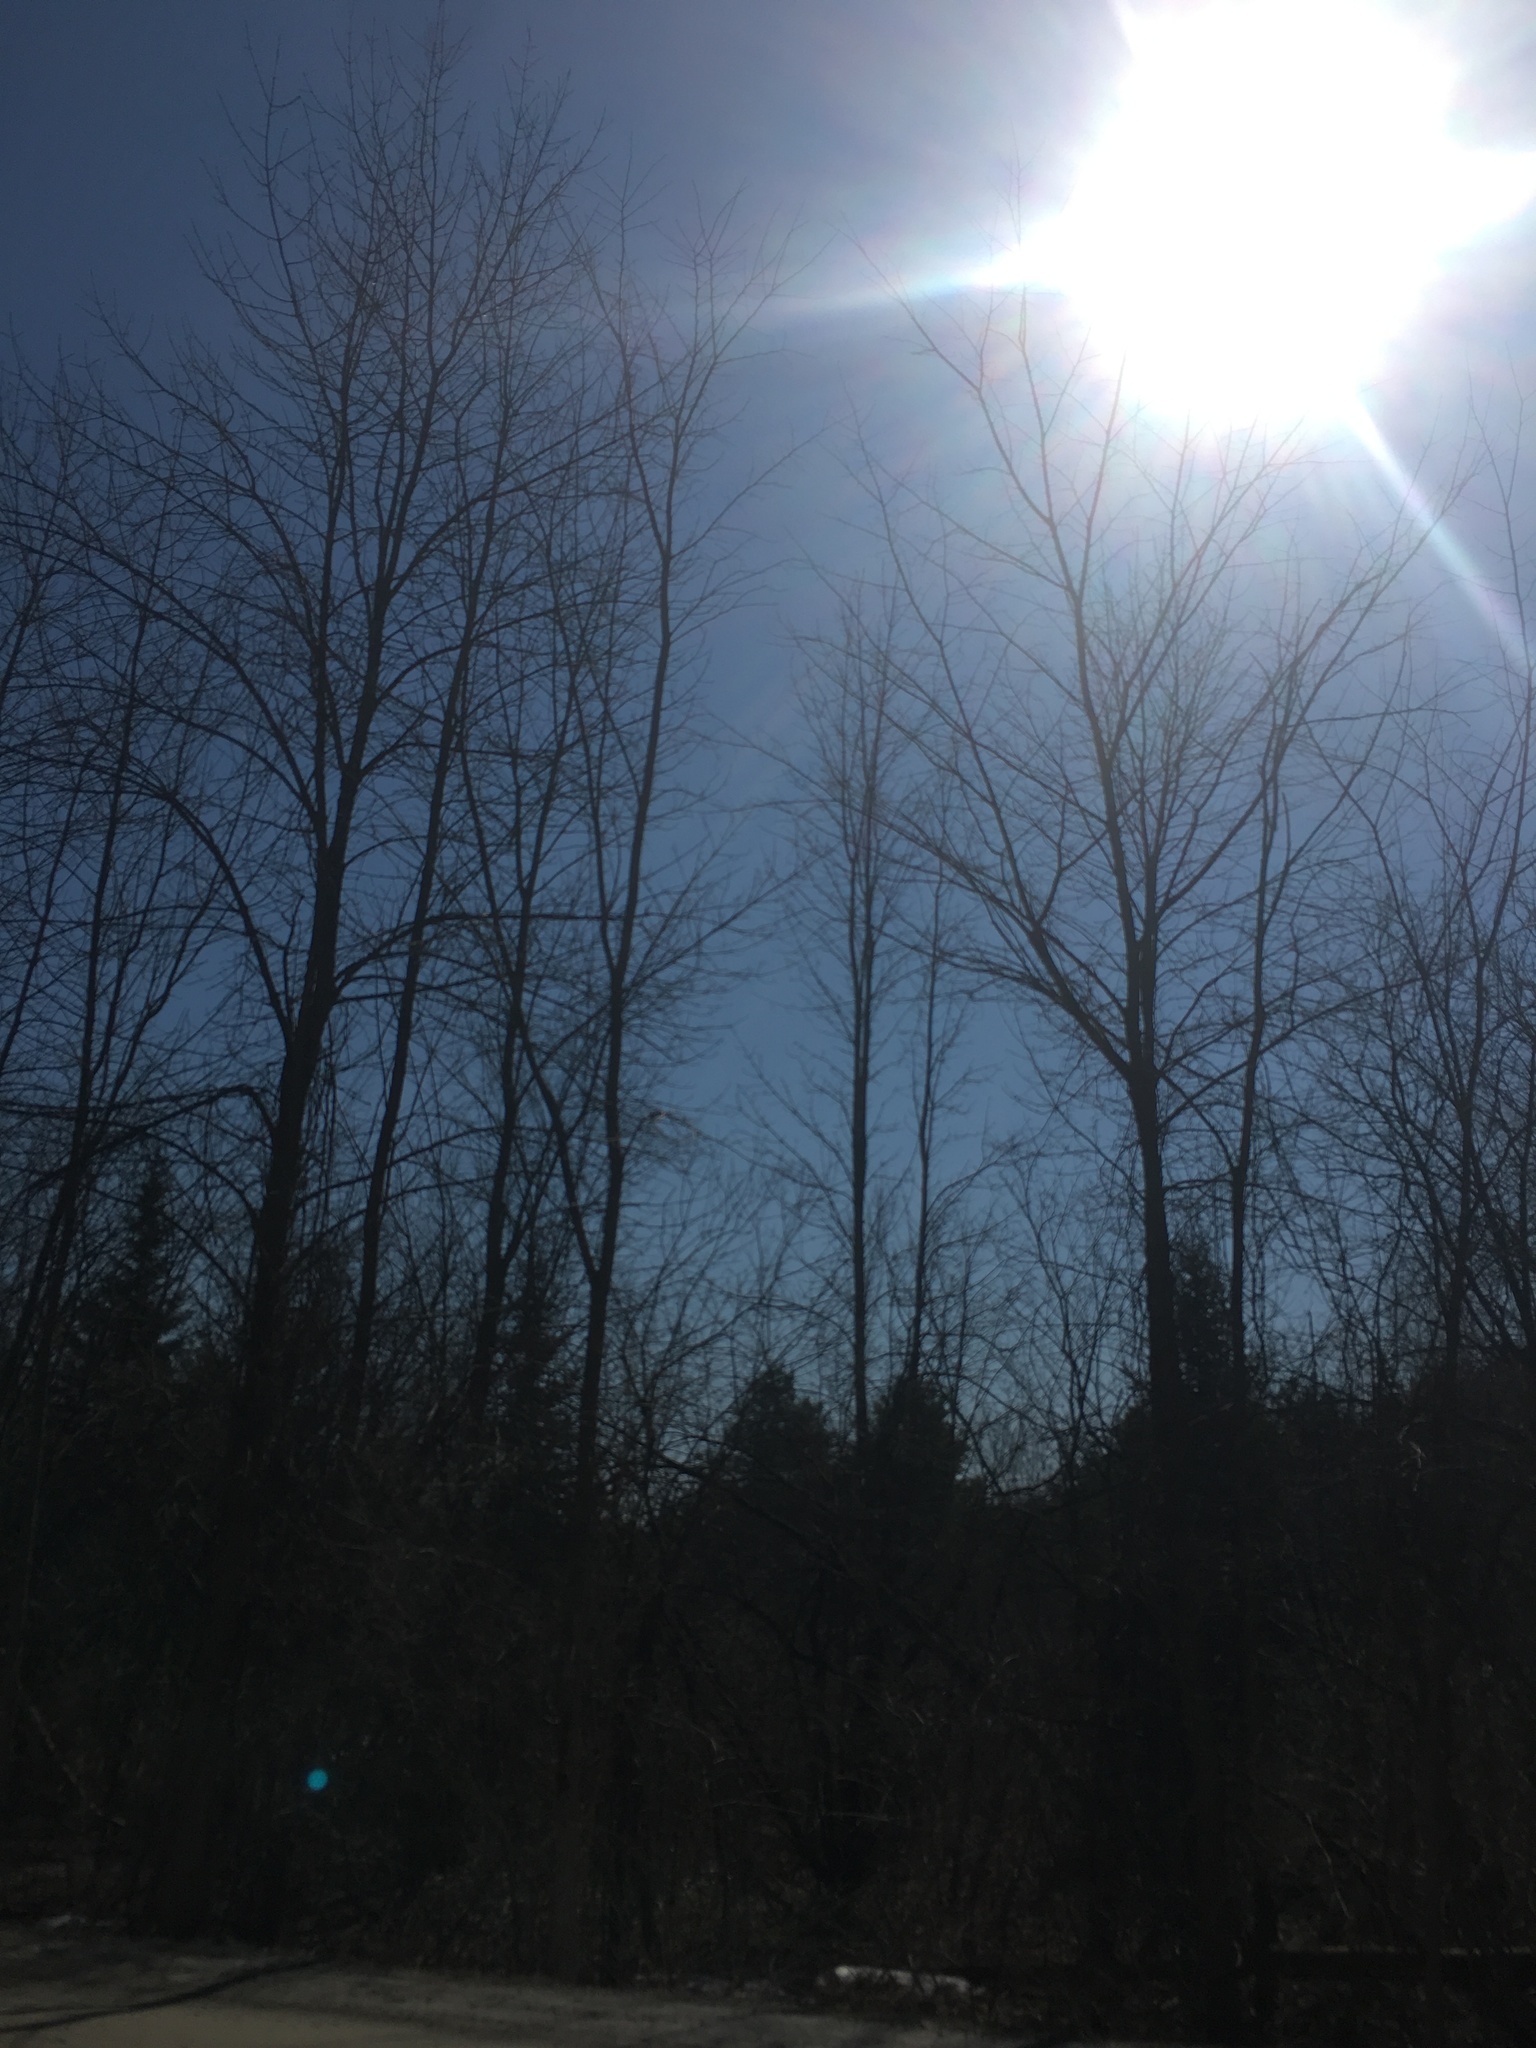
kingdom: Plantae
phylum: Tracheophyta
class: Magnoliopsida
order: Rosales
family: Ulmaceae
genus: Ulmus
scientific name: Ulmus americana
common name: American elm
